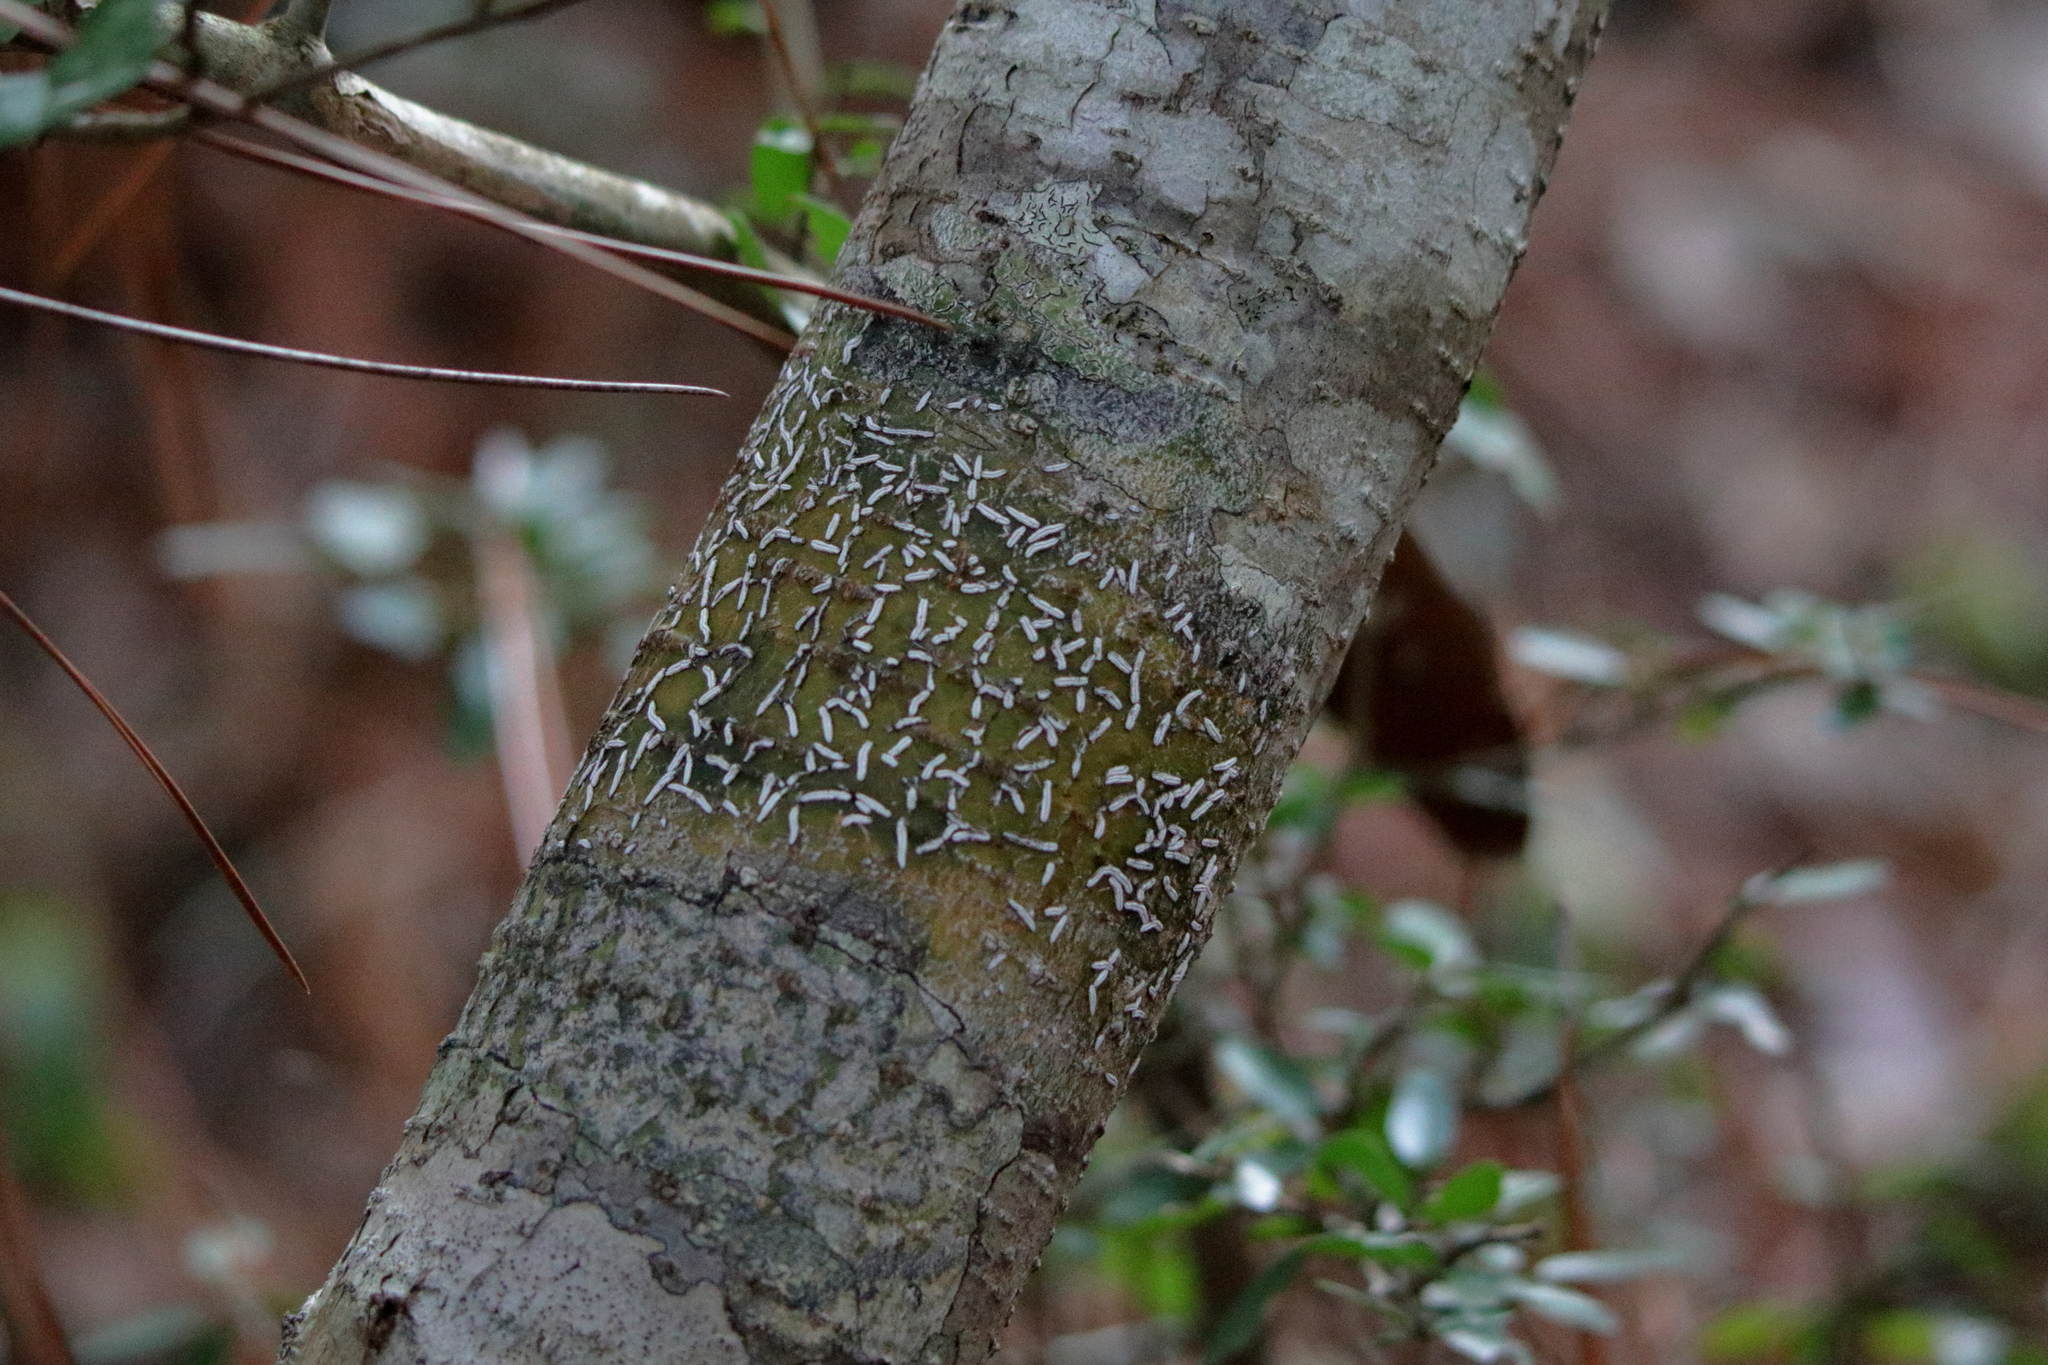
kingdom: Fungi
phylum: Ascomycota
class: Lecanoromycetes
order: Ostropales
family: Graphidaceae
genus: Dyplolabia
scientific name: Dyplolabia afzelii
